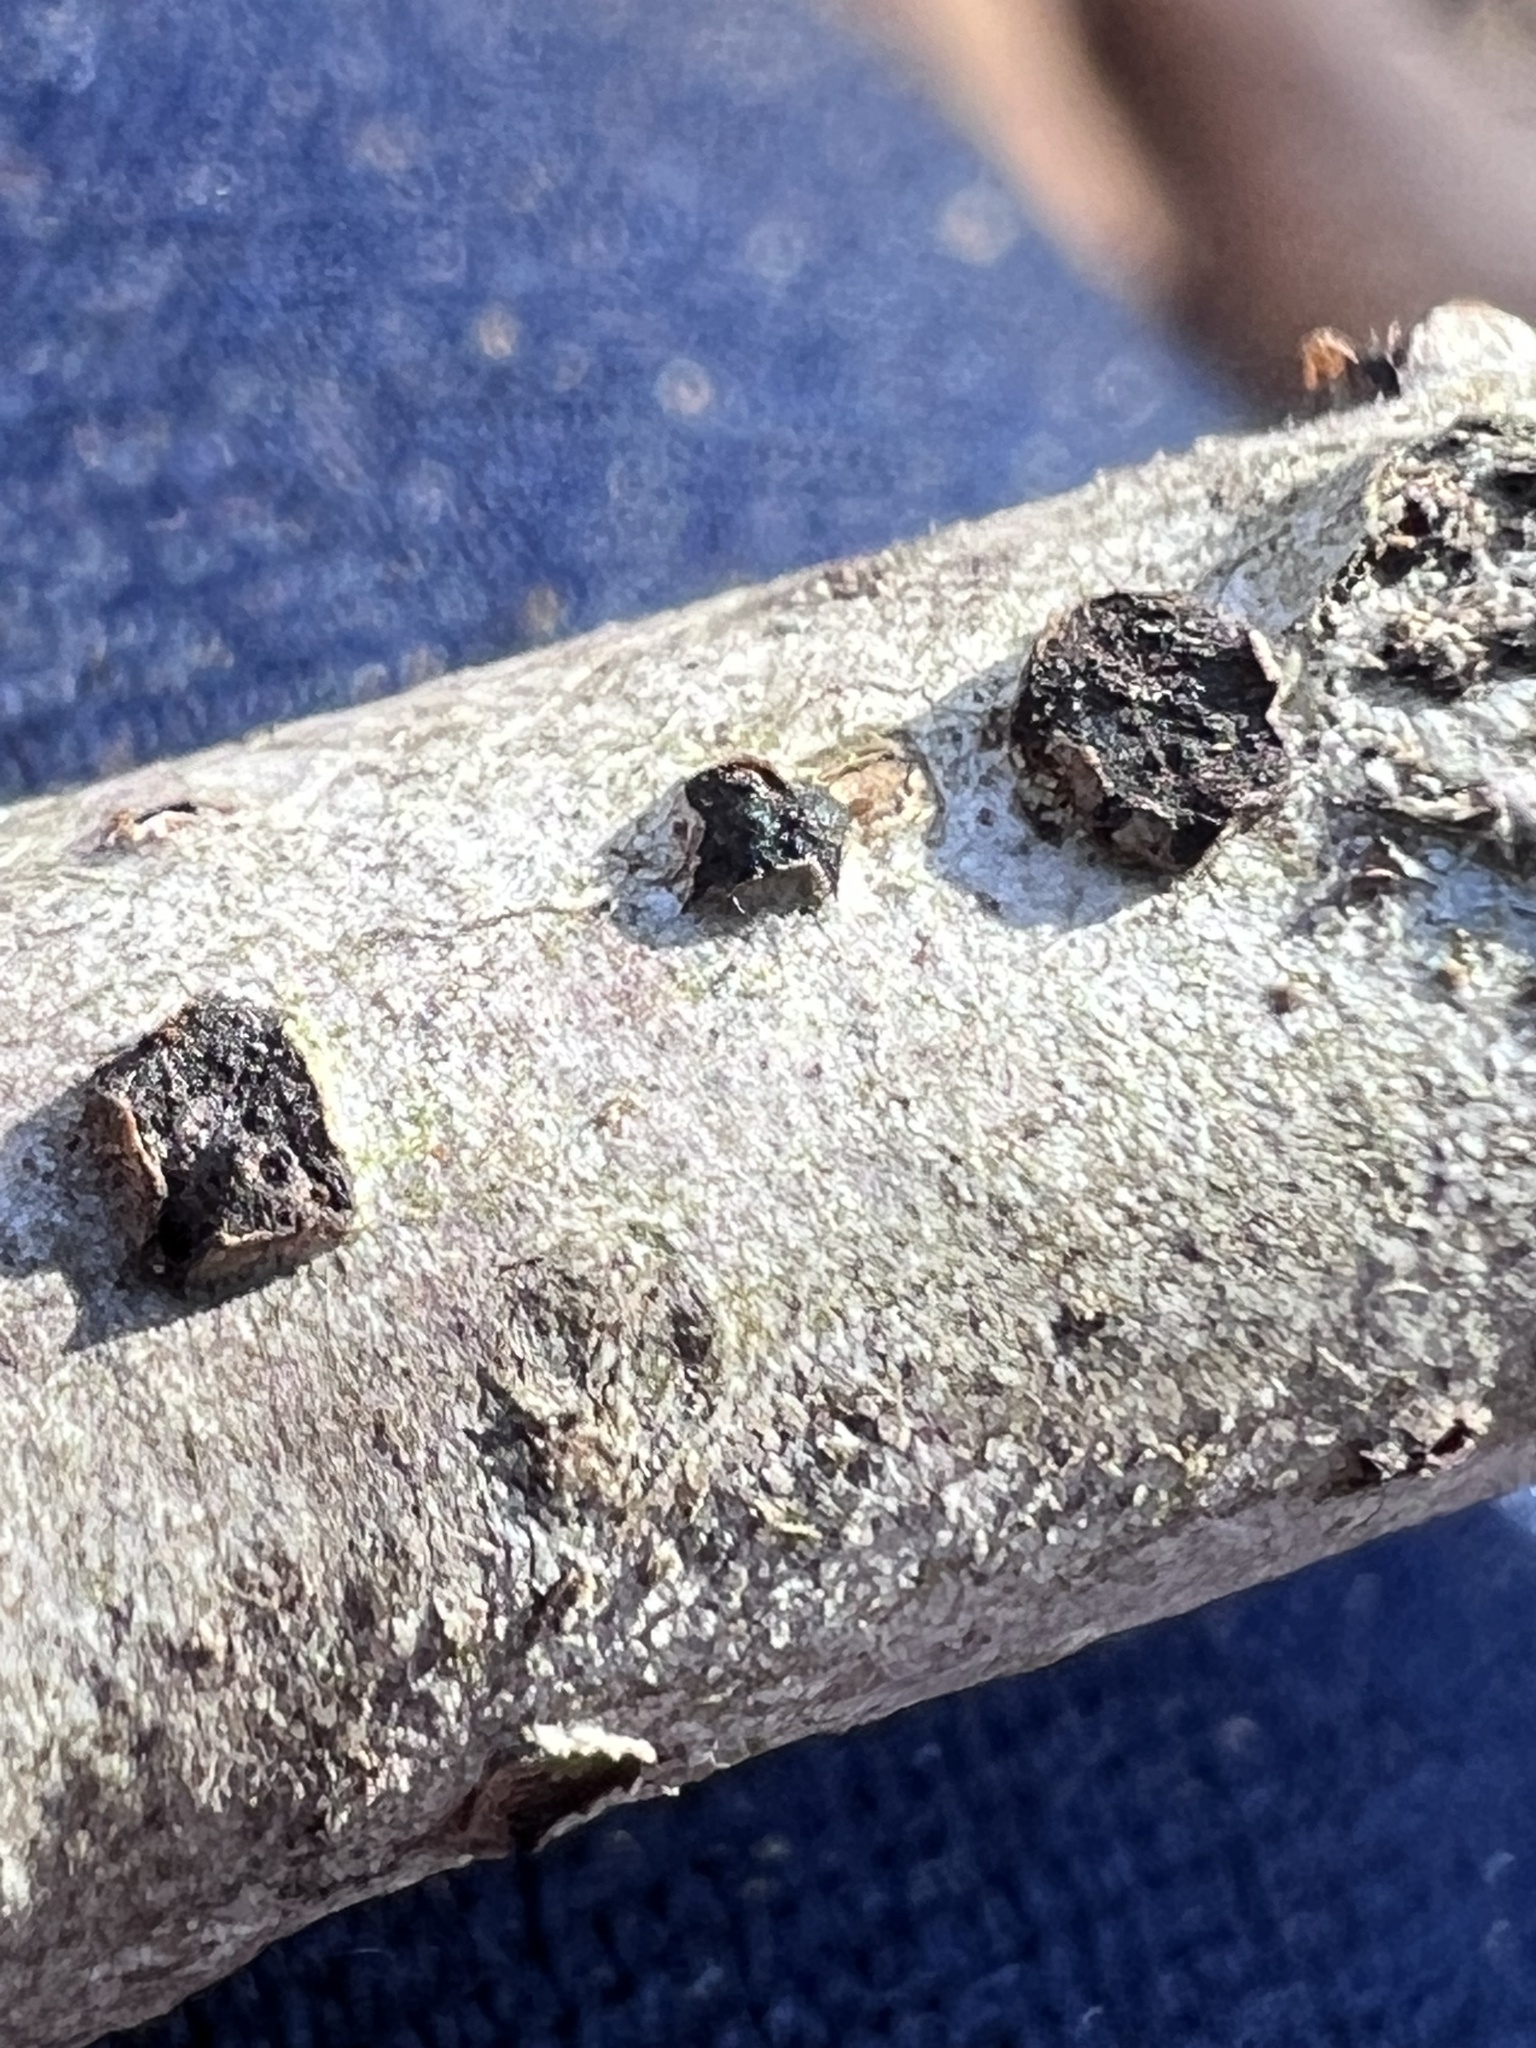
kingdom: Fungi
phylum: Ascomycota
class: Sordariomycetes
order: Xylariales
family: Diatrypaceae
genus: Diatrype
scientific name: Diatrype virescens
